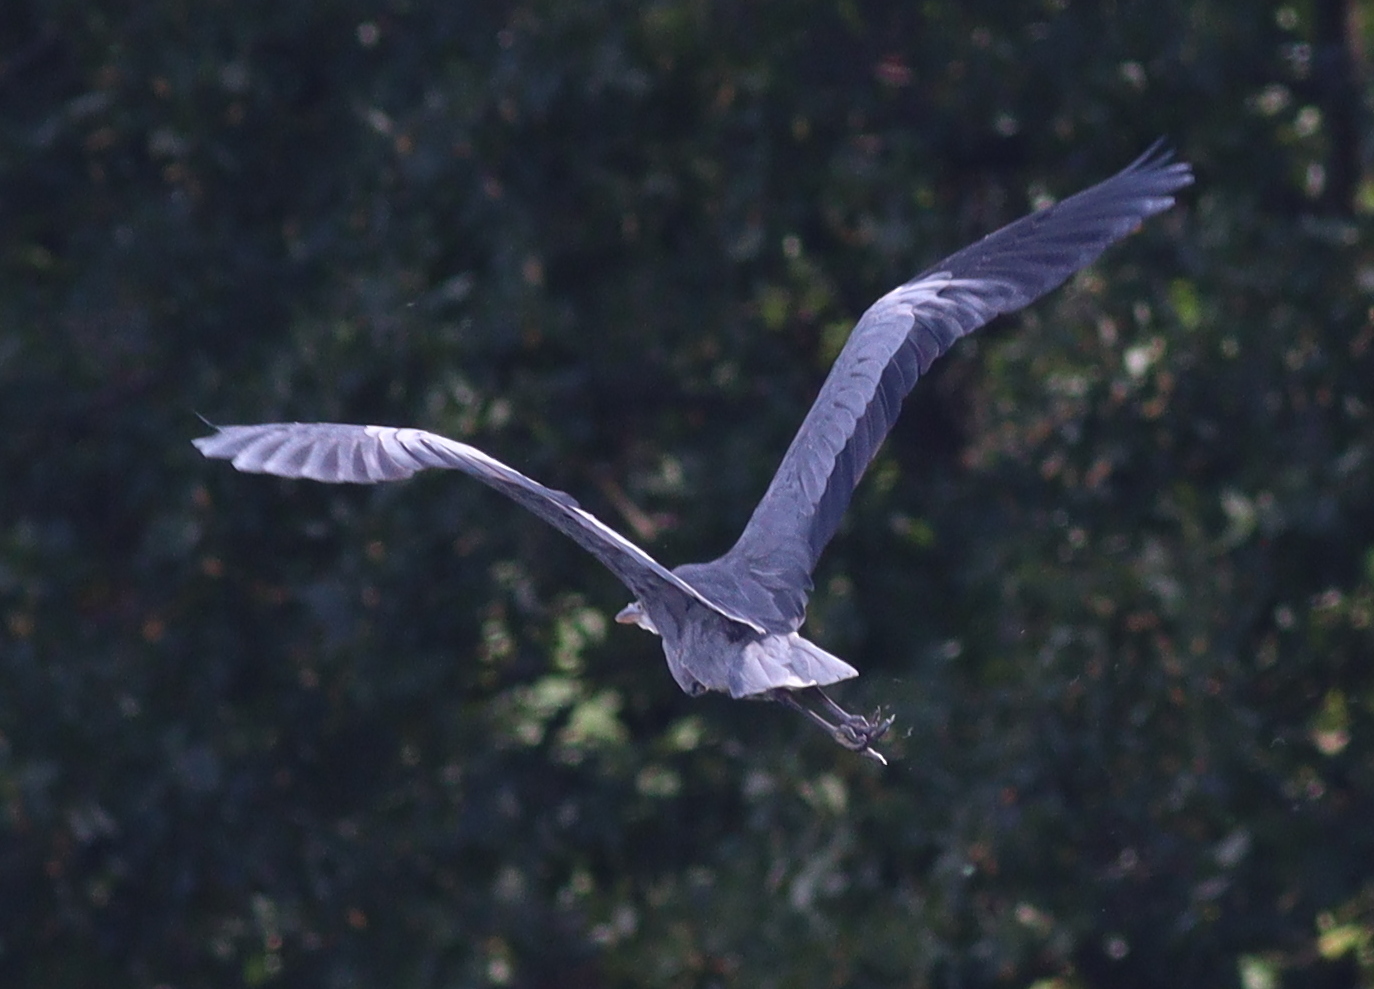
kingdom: Animalia
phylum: Chordata
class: Aves
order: Pelecaniformes
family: Ardeidae
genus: Ardea
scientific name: Ardea cinerea
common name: Grey heron
